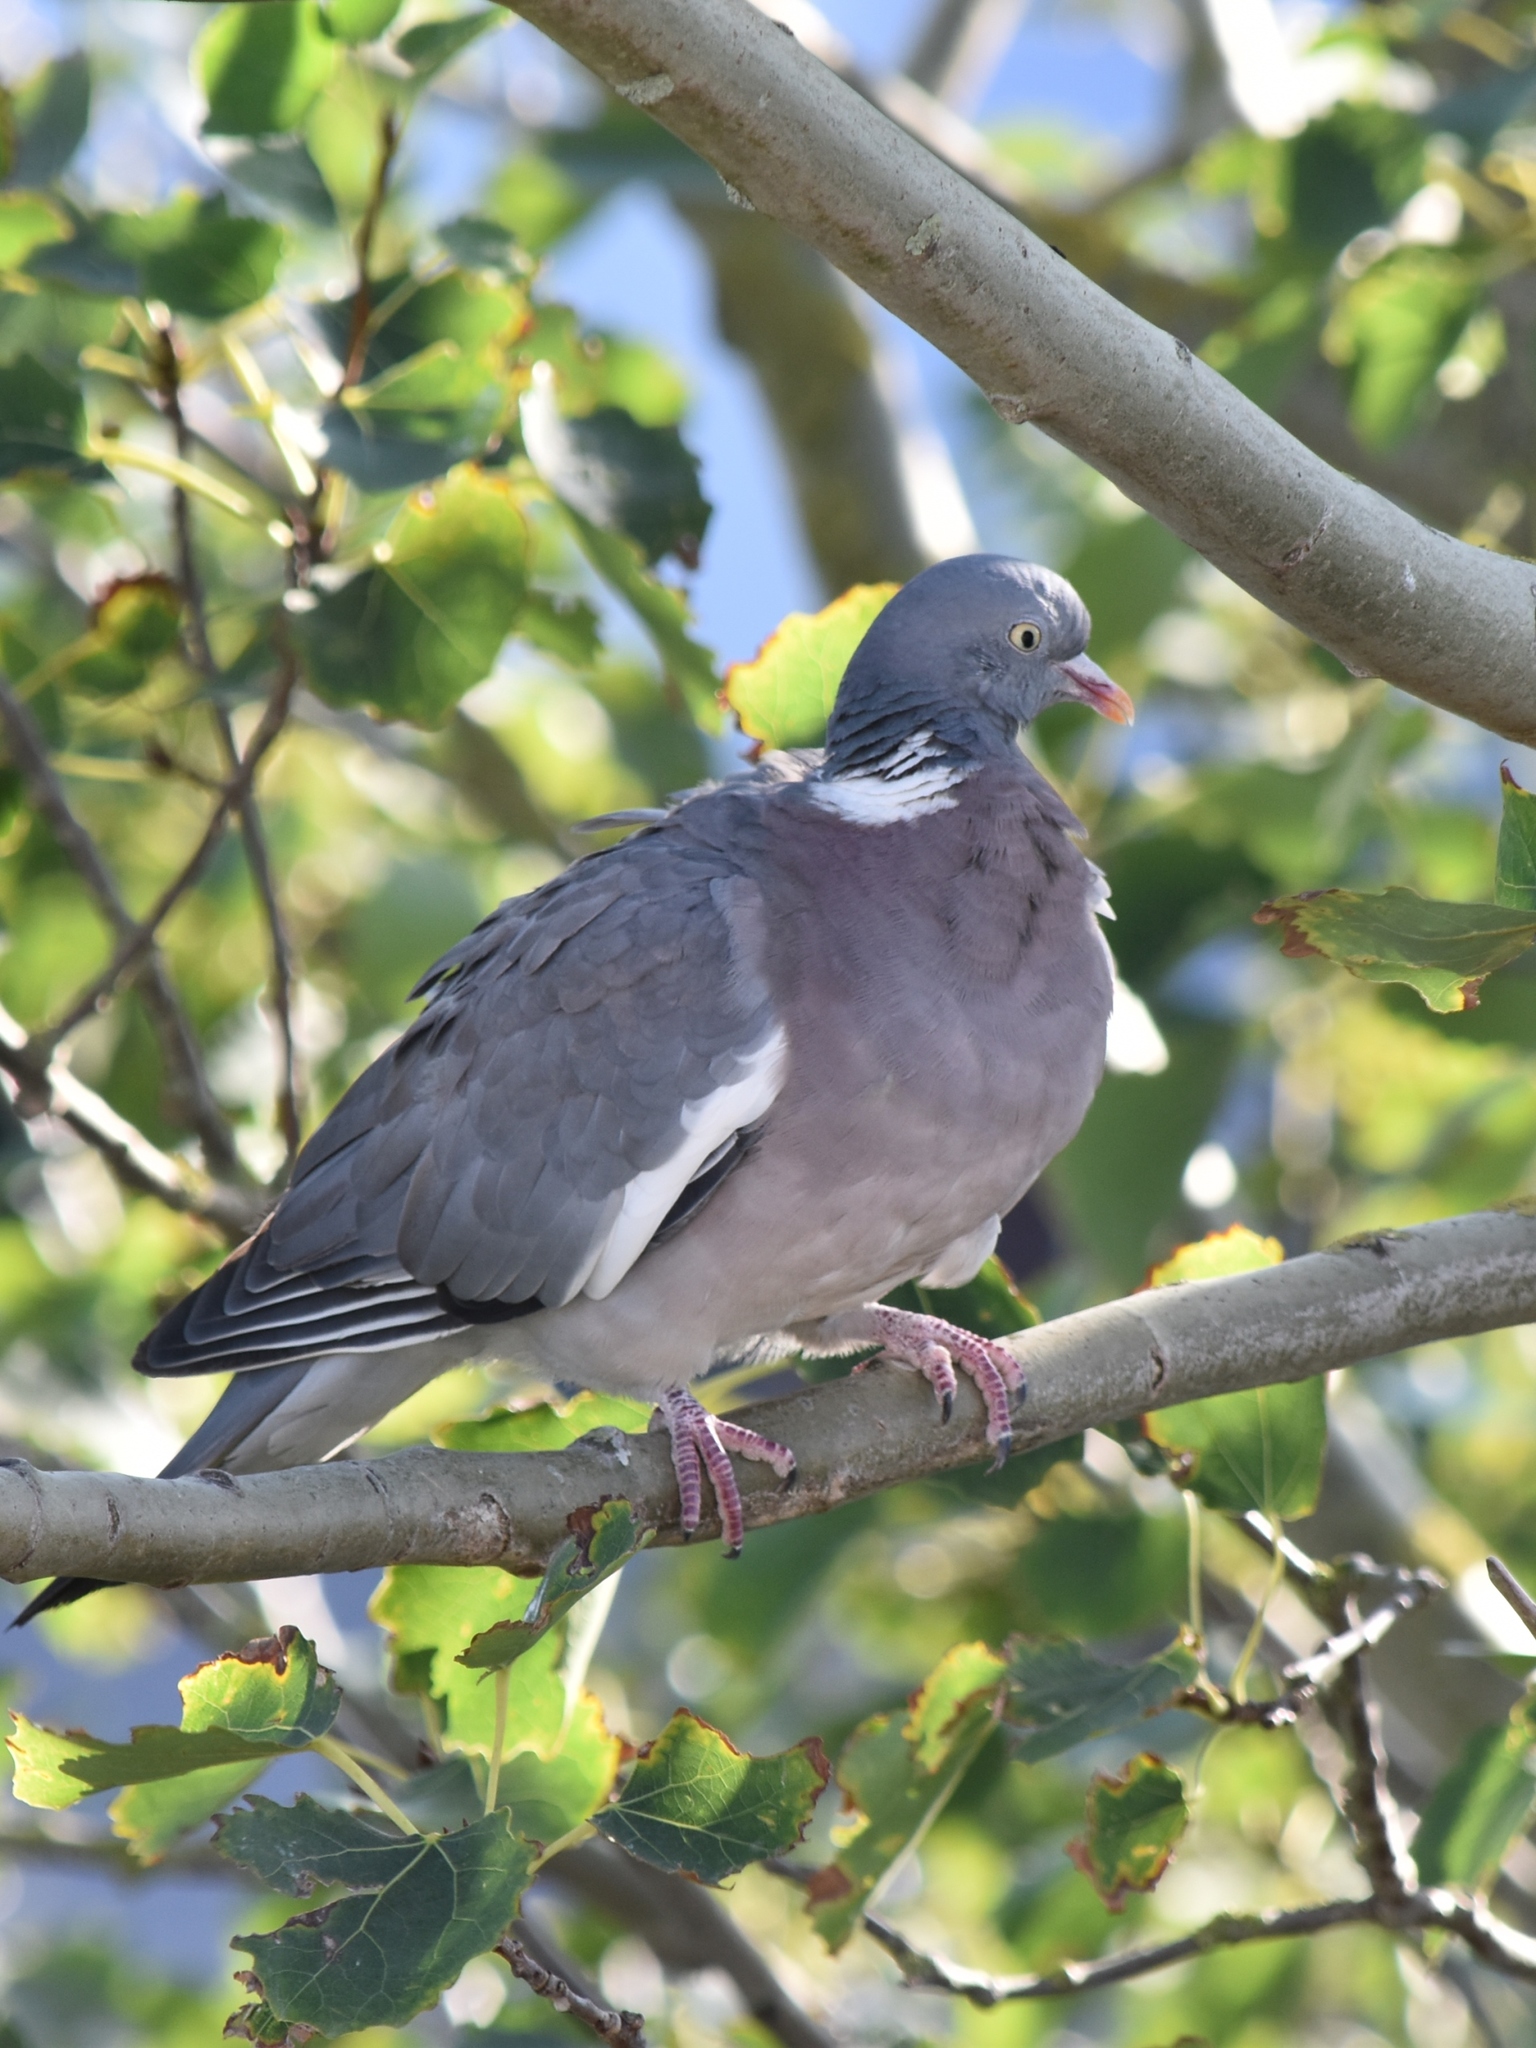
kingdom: Animalia
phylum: Chordata
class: Aves
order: Columbiformes
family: Columbidae
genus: Columba
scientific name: Columba palumbus
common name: Common wood pigeon
